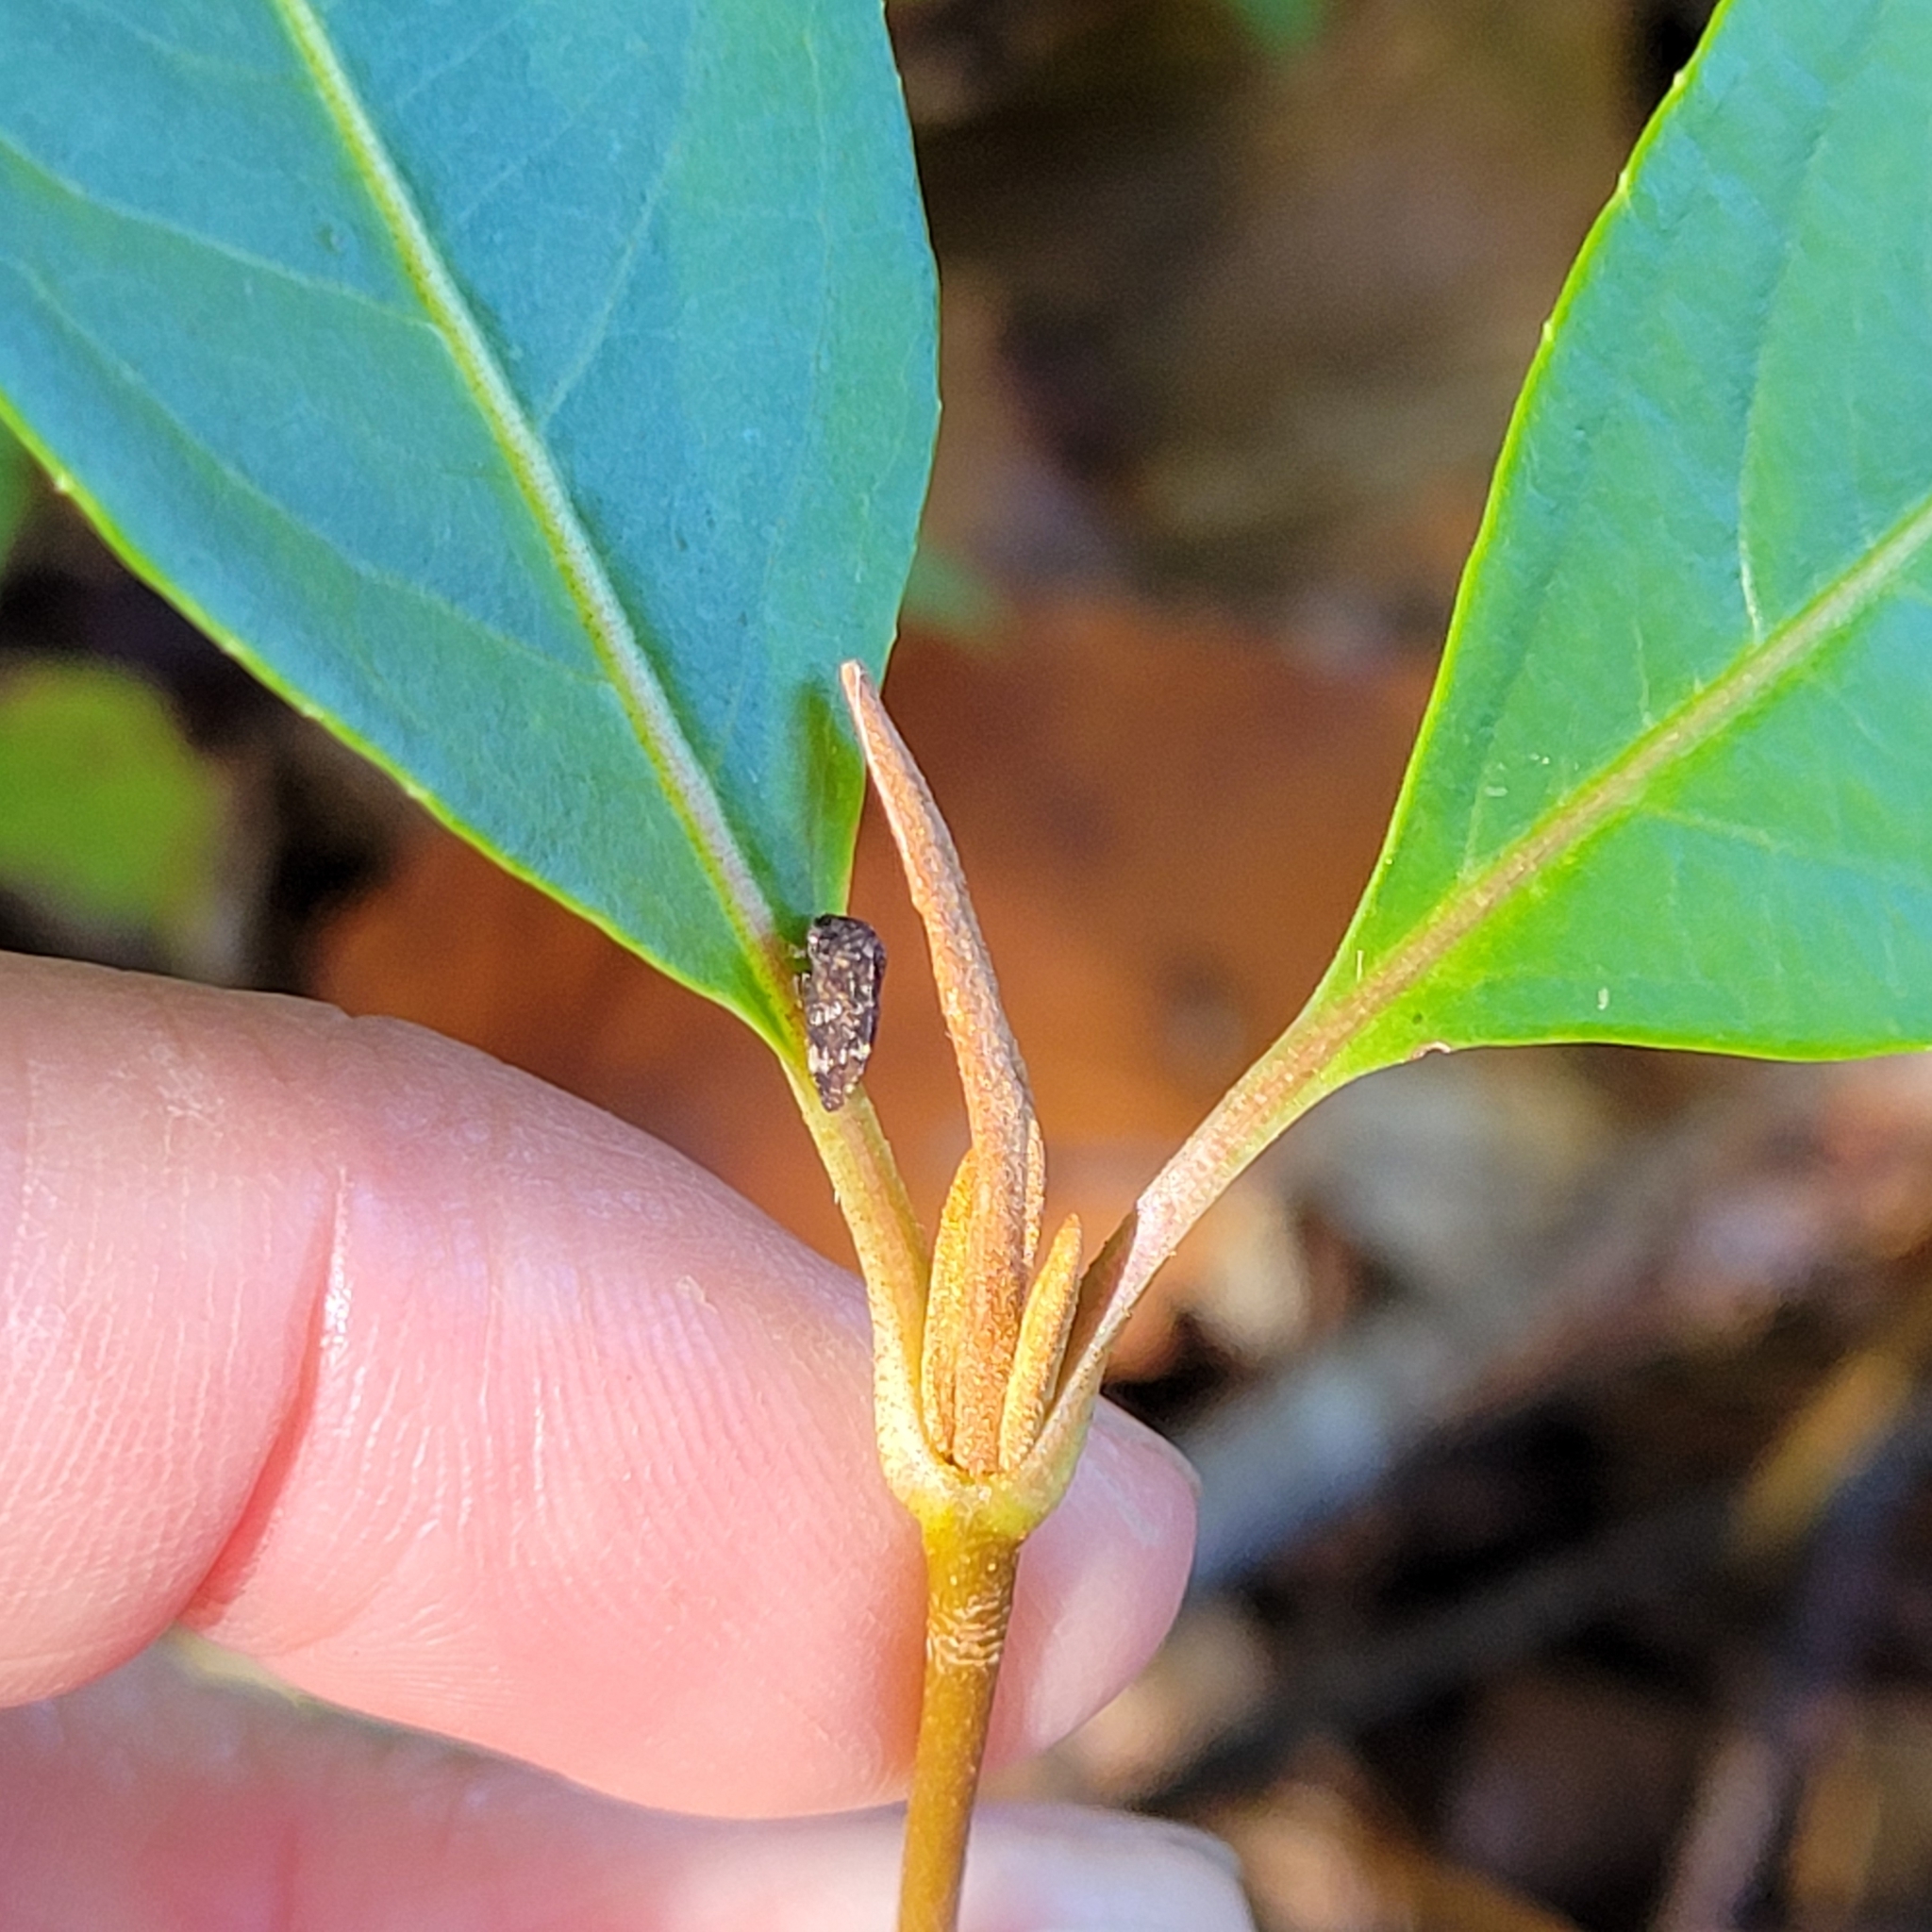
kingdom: Plantae
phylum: Tracheophyta
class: Magnoliopsida
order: Dipsacales
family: Viburnaceae
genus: Viburnum
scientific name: Viburnum cassinoides
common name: Swamp haw
